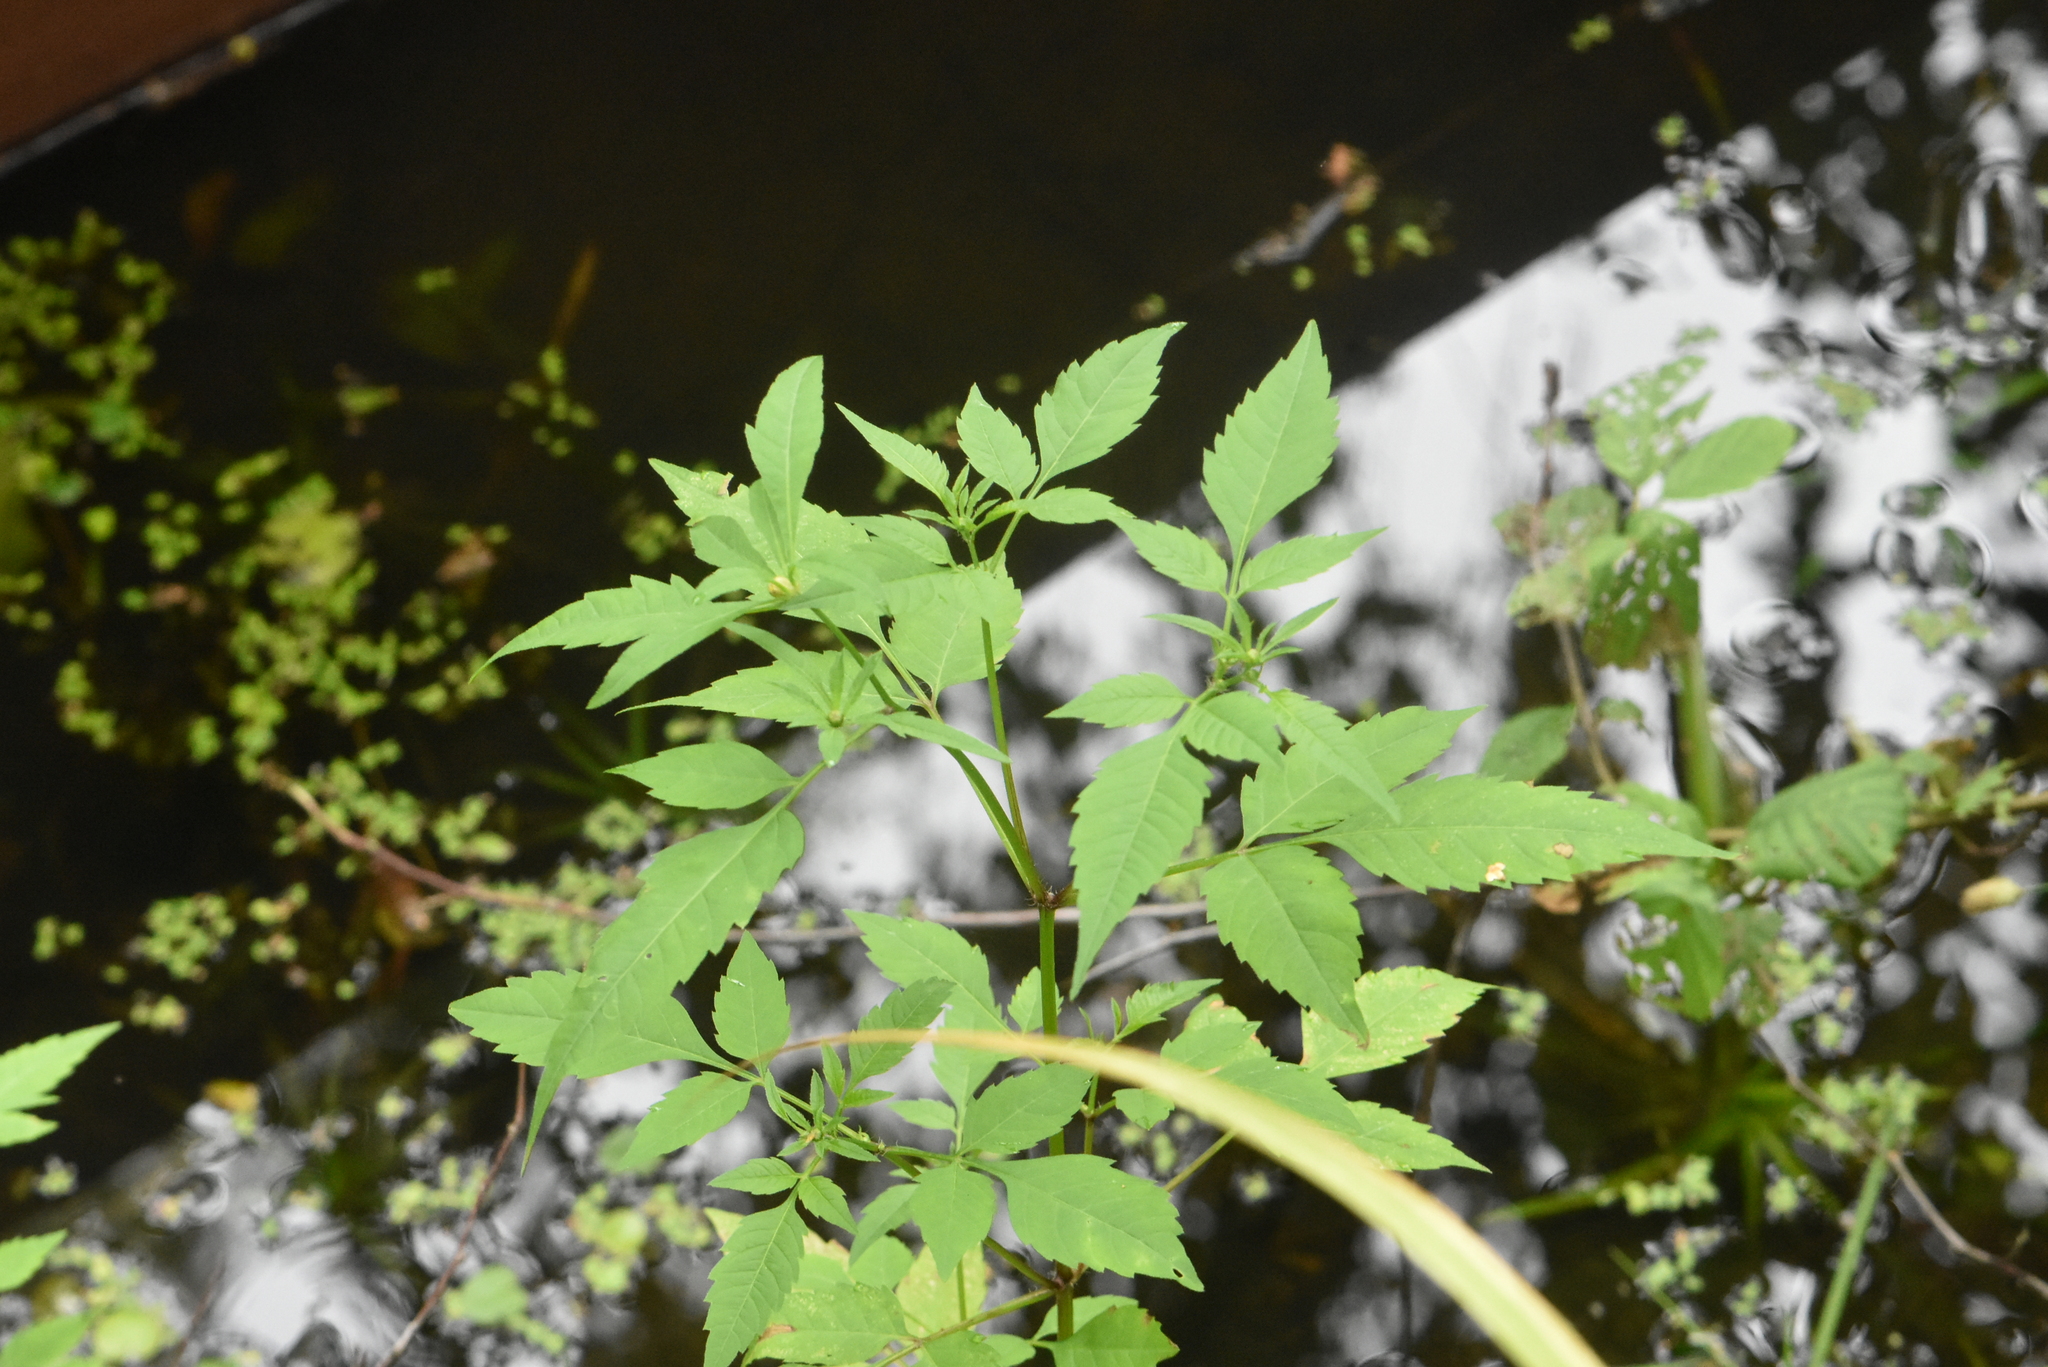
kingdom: Plantae
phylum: Tracheophyta
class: Magnoliopsida
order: Asterales
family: Asteraceae
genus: Bidens
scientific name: Bidens frondosa
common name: Beggarticks
